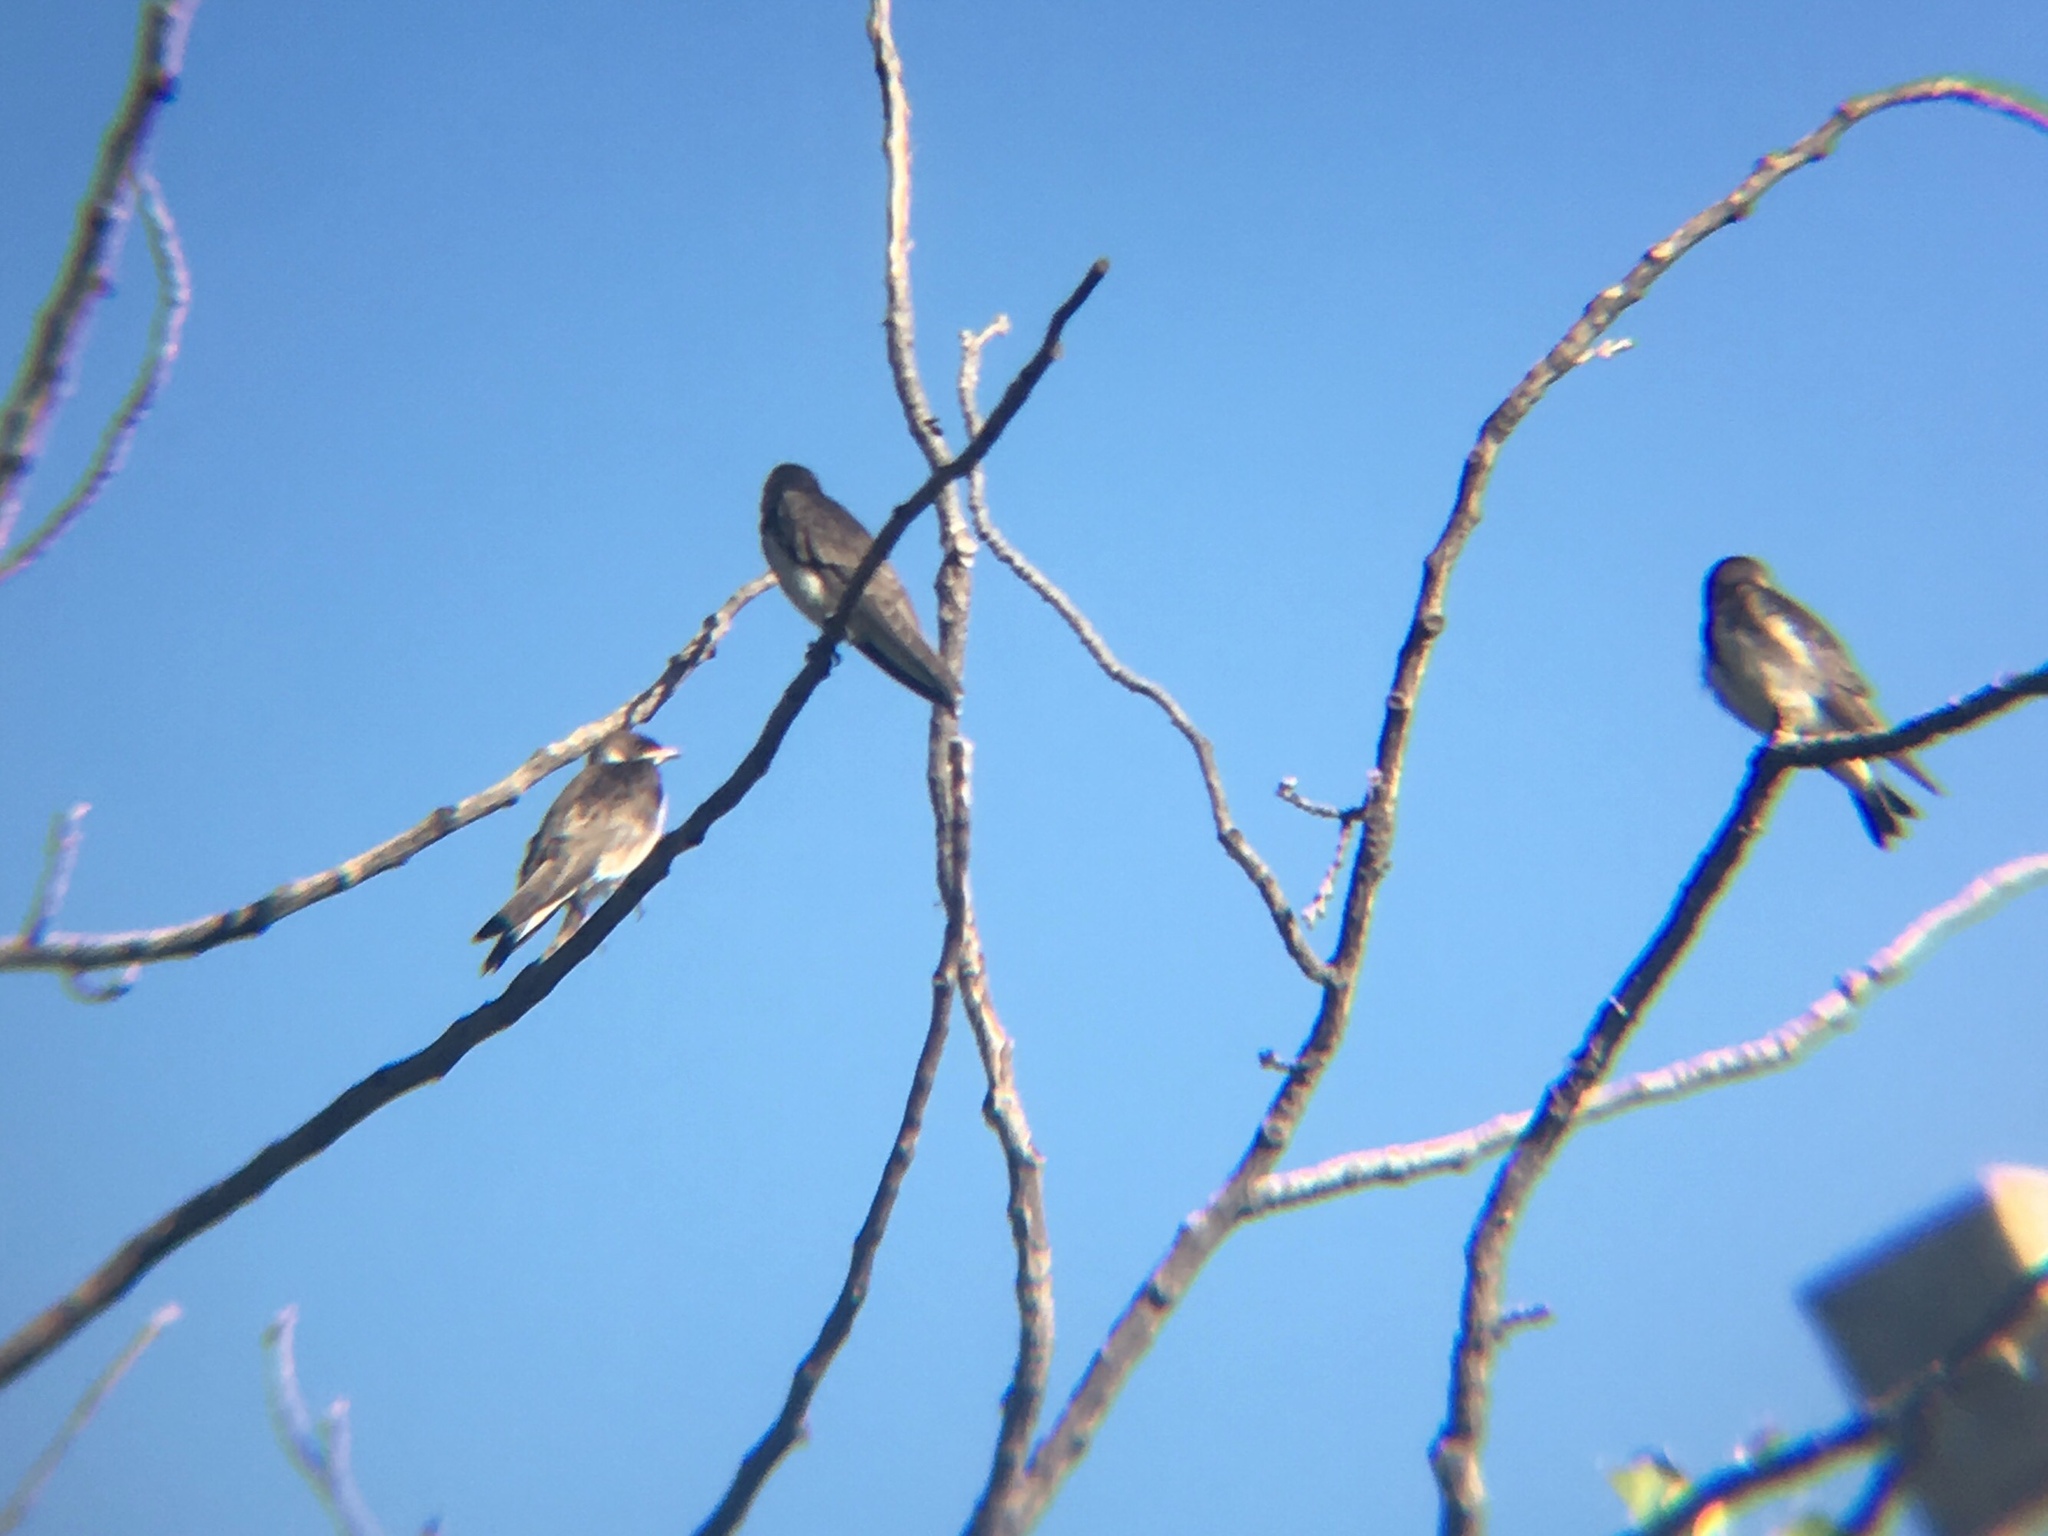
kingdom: Animalia
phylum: Chordata
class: Aves
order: Passeriformes
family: Hirundinidae
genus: Progne
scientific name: Progne tapera
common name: Brown-chested martin
